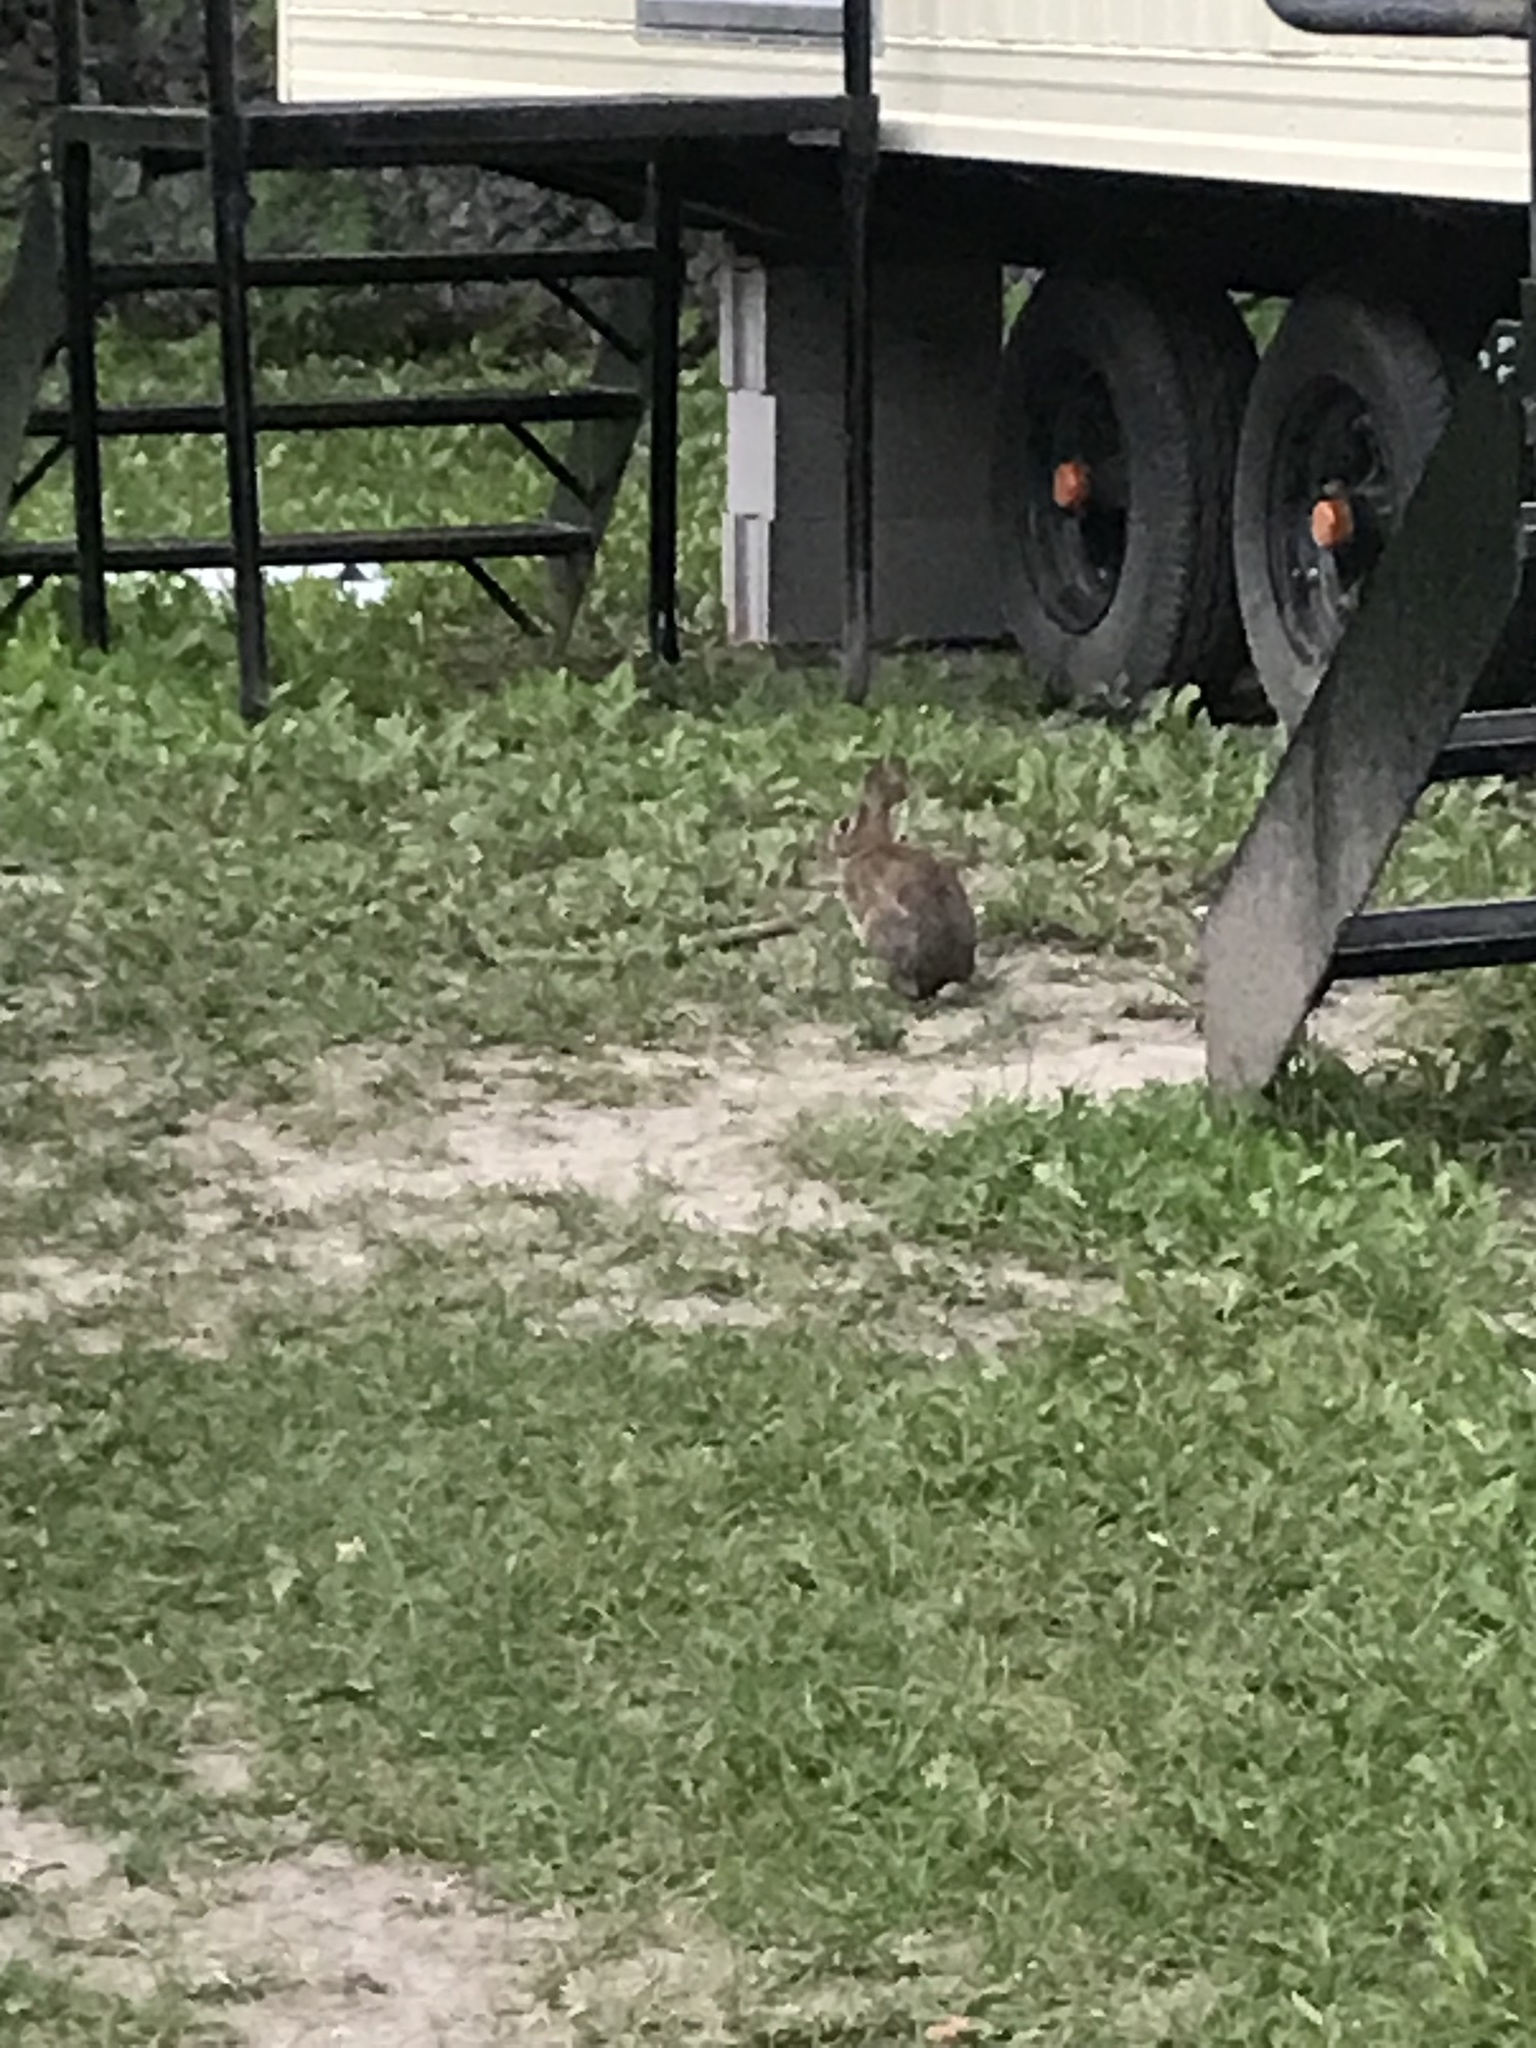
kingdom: Animalia
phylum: Chordata
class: Mammalia
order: Lagomorpha
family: Leporidae
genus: Sylvilagus
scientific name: Sylvilagus floridanus
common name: Eastern cottontail
